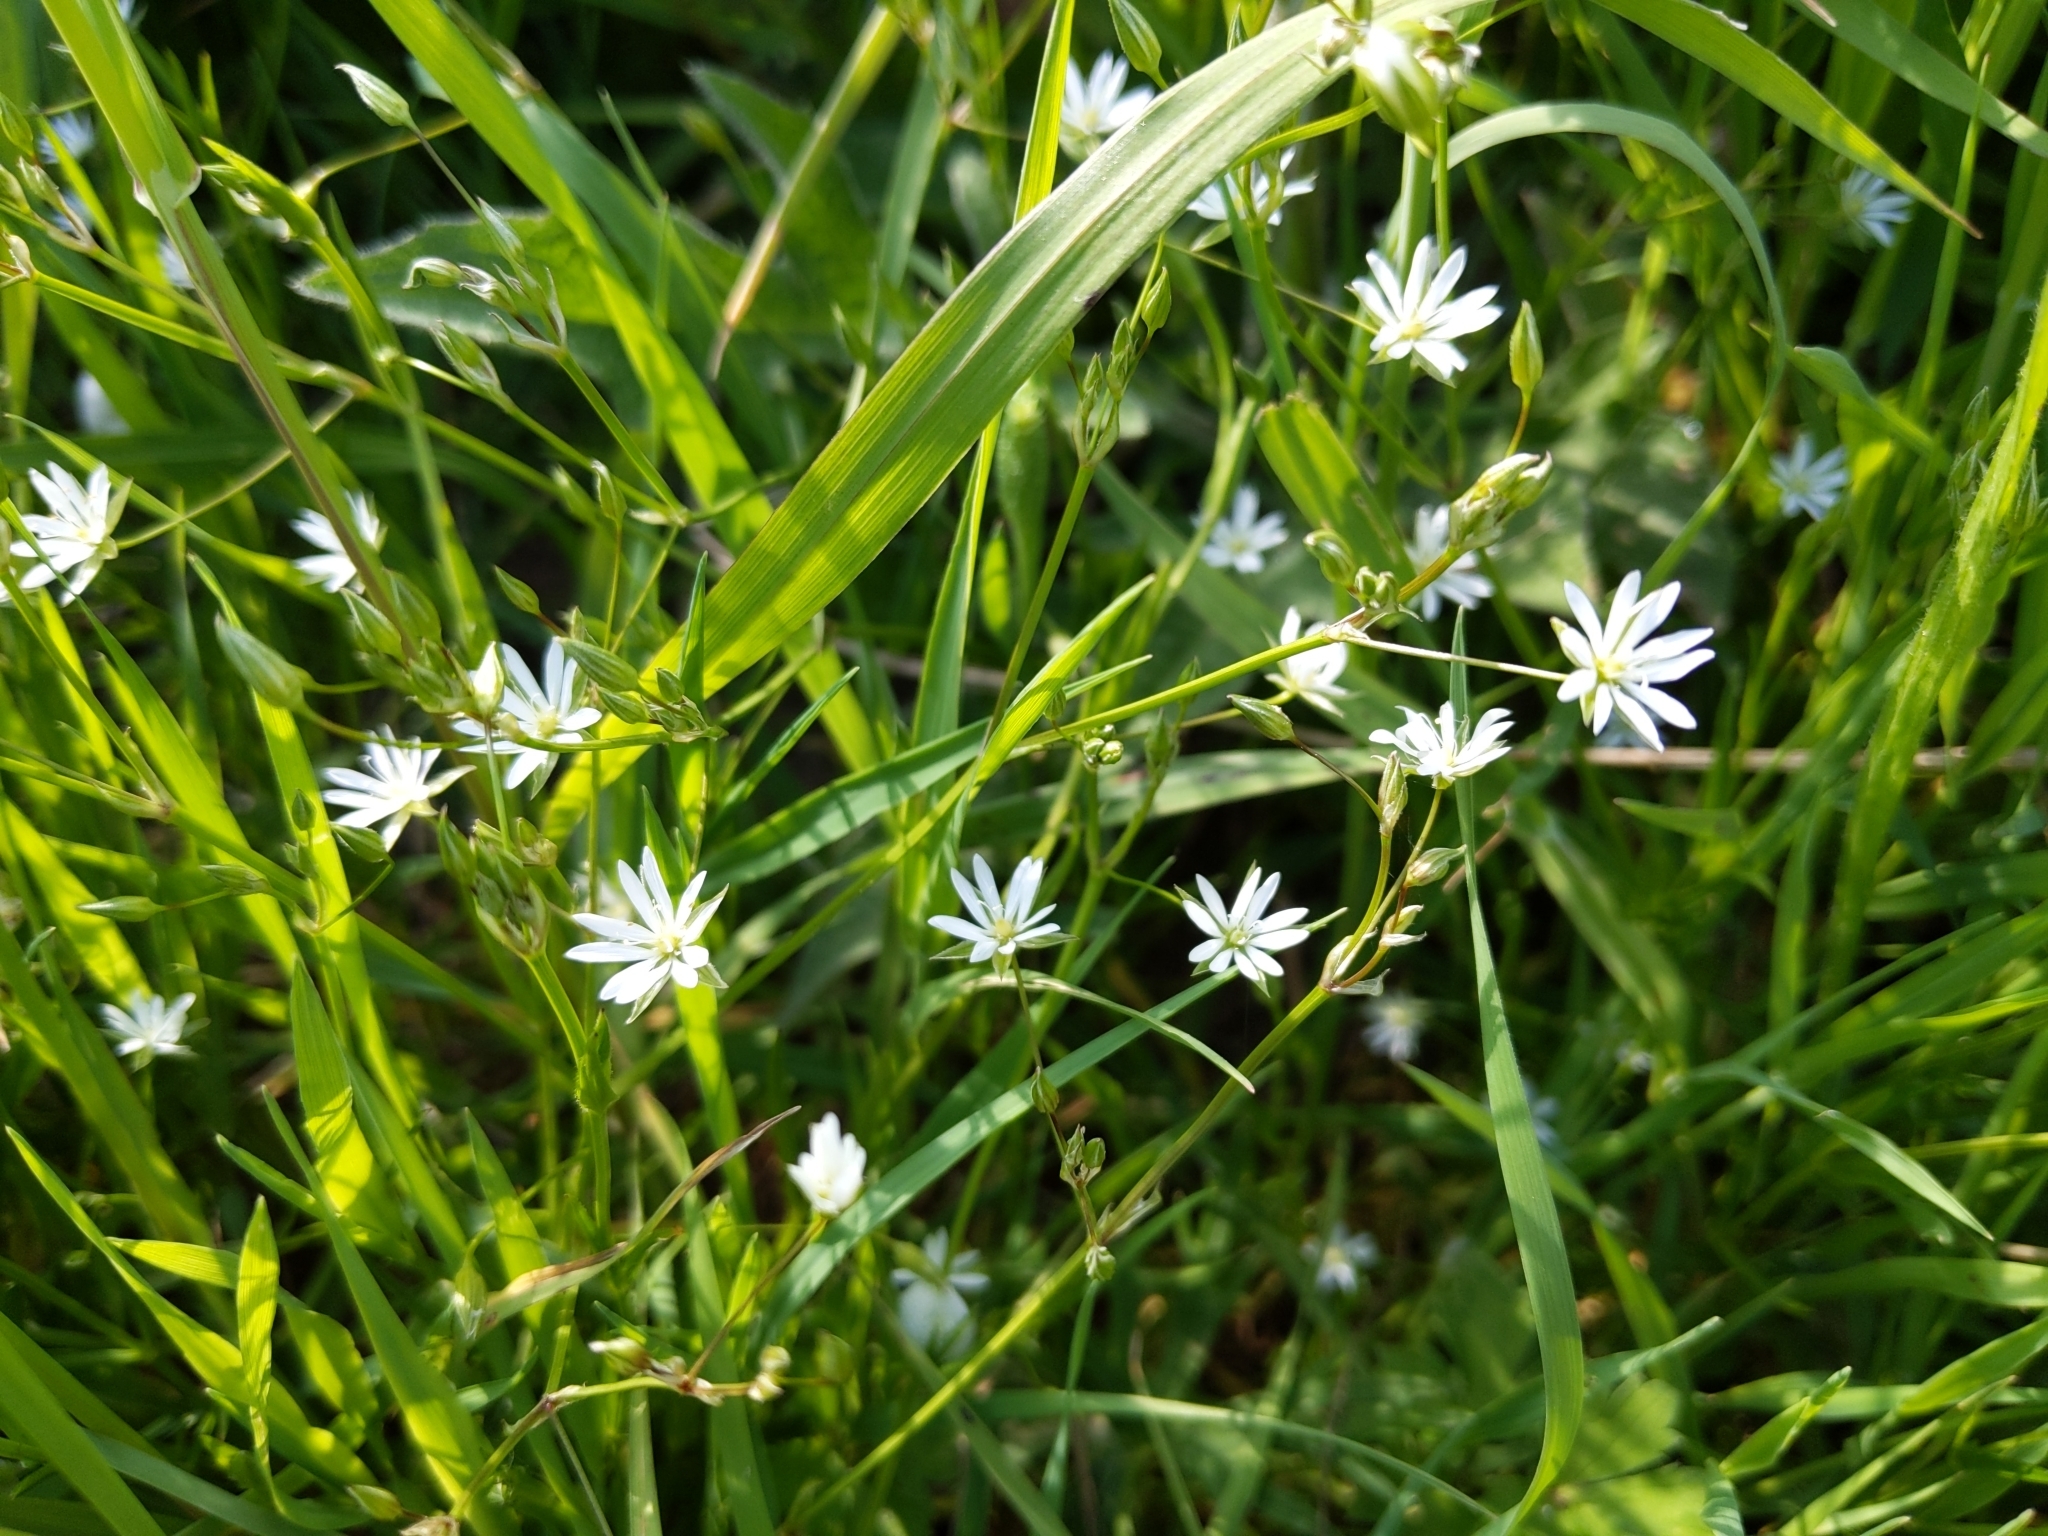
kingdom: Plantae
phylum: Tracheophyta
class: Magnoliopsida
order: Caryophyllales
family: Caryophyllaceae
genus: Stellaria
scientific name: Stellaria graminea
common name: Grass-like starwort
